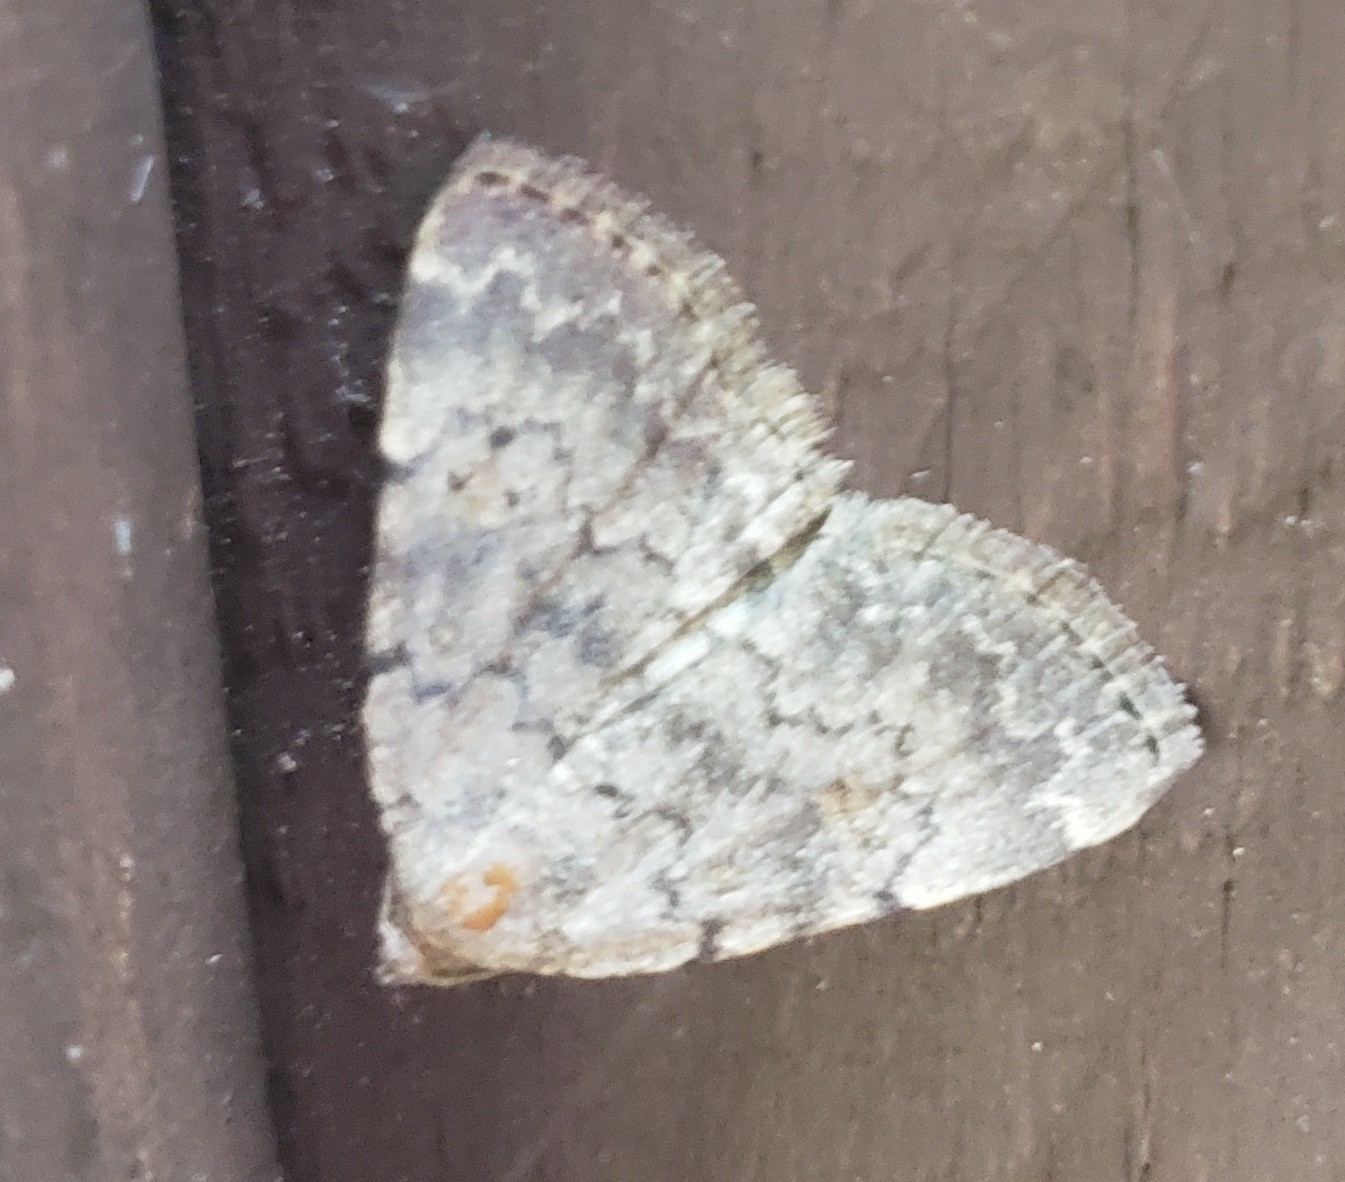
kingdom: Animalia
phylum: Arthropoda
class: Insecta
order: Lepidoptera
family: Erebidae
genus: Idia
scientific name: Idia aemula
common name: Common idia moth
